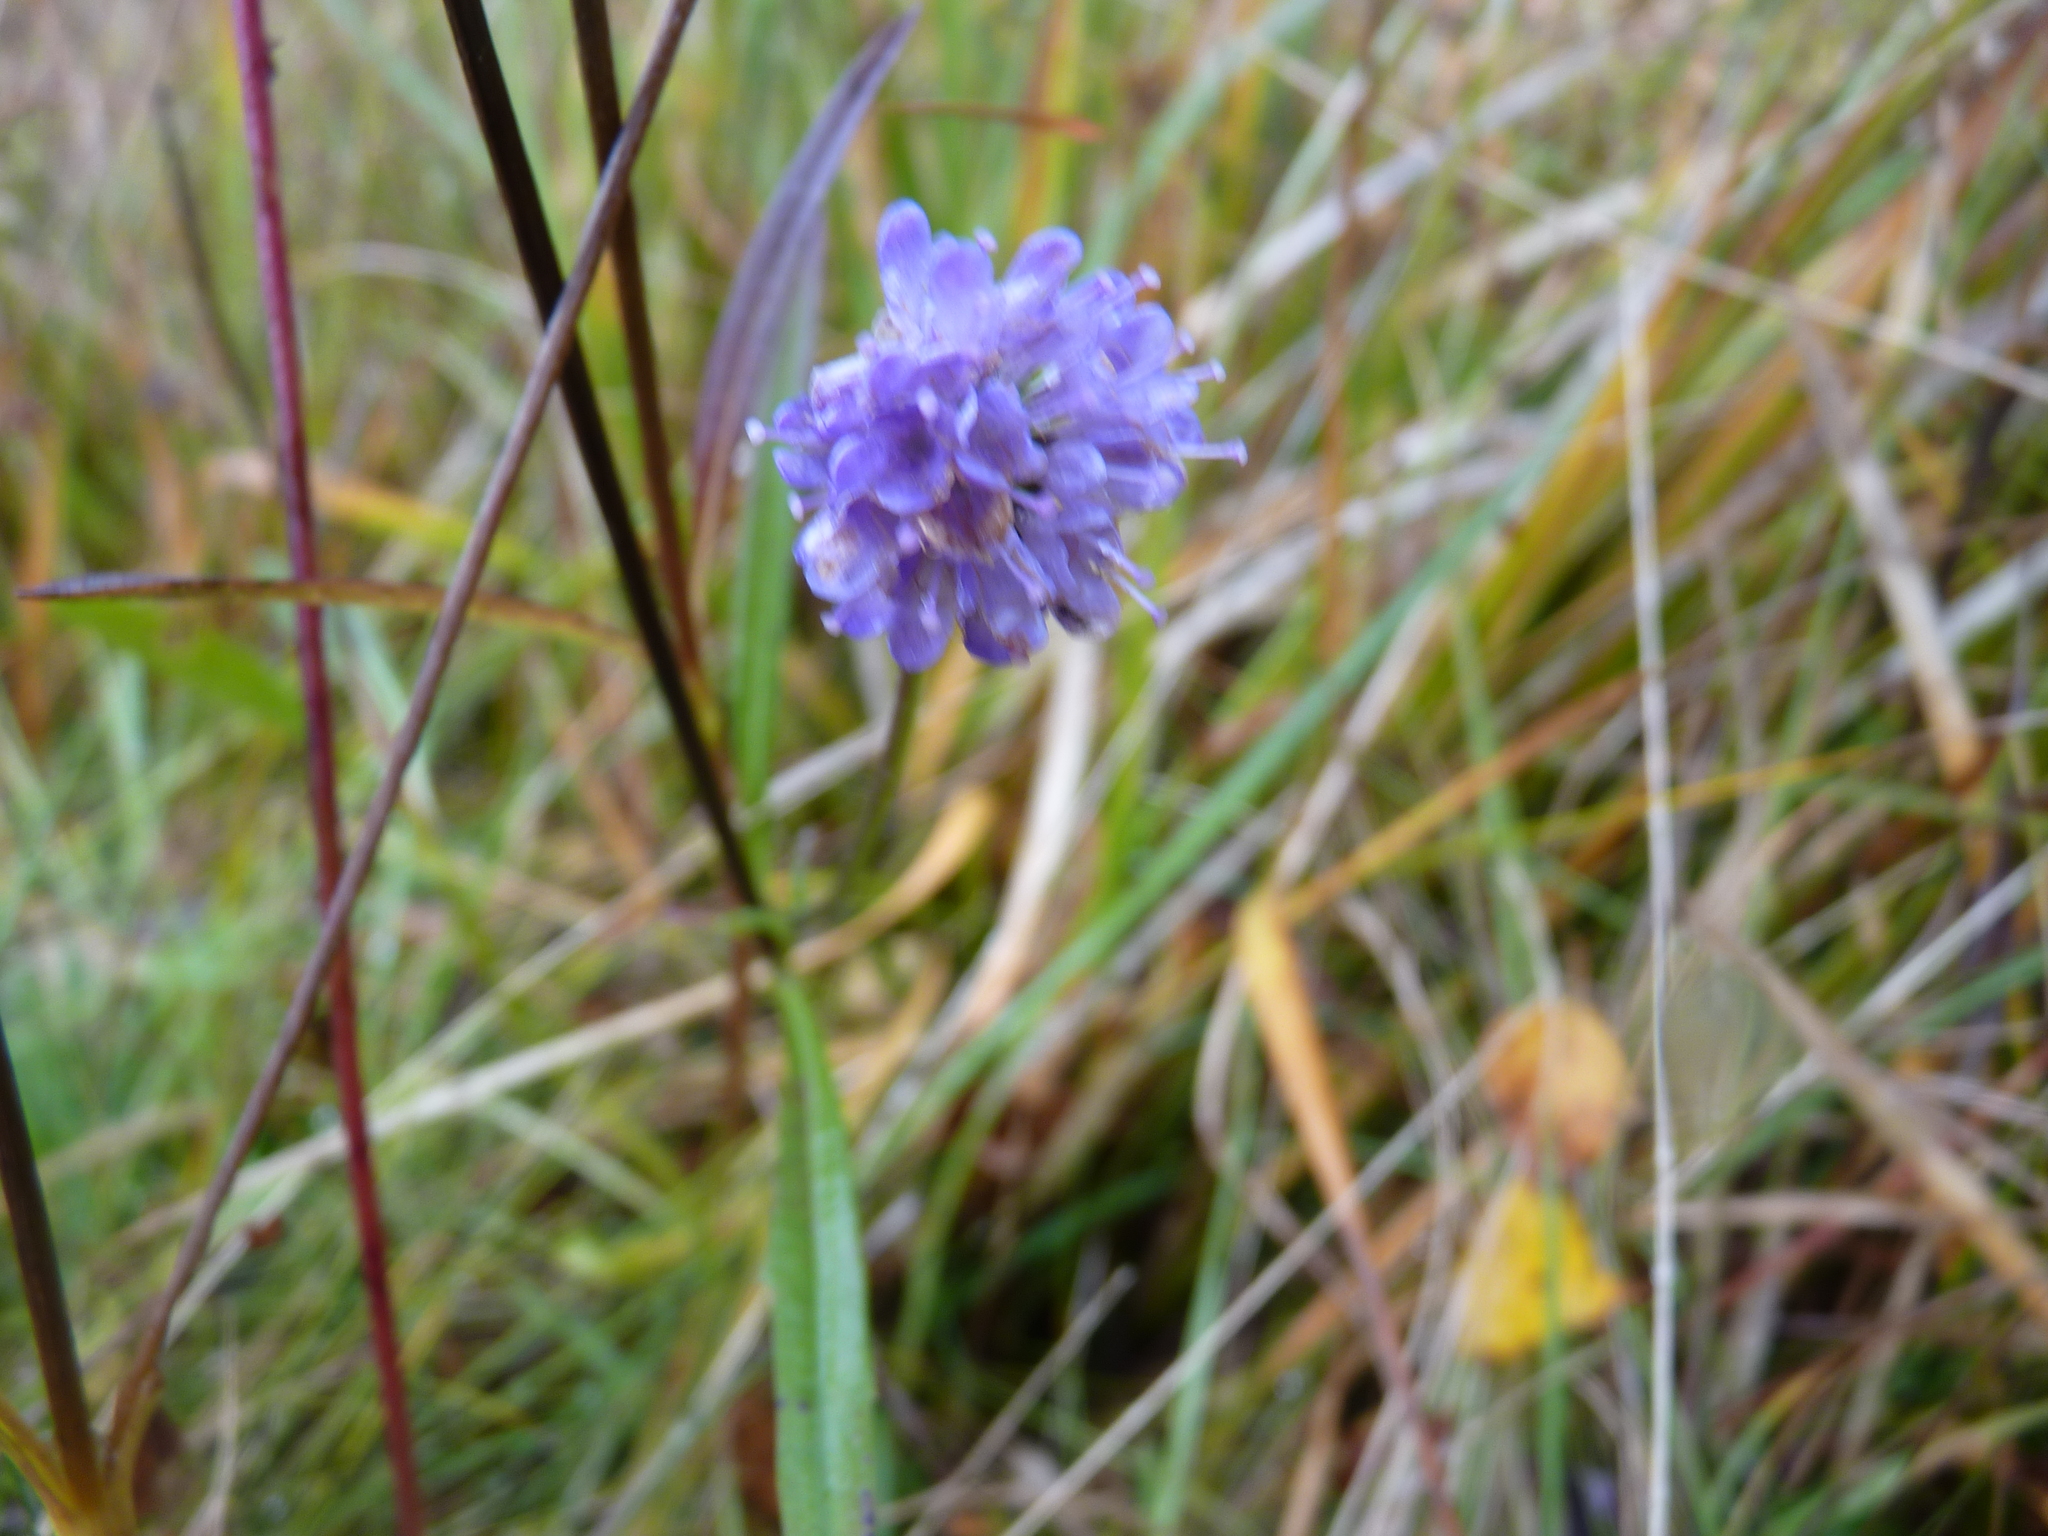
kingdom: Plantae
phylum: Tracheophyta
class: Magnoliopsida
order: Dipsacales
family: Caprifoliaceae
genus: Succisa
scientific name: Succisa pratensis
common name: Devil's-bit
